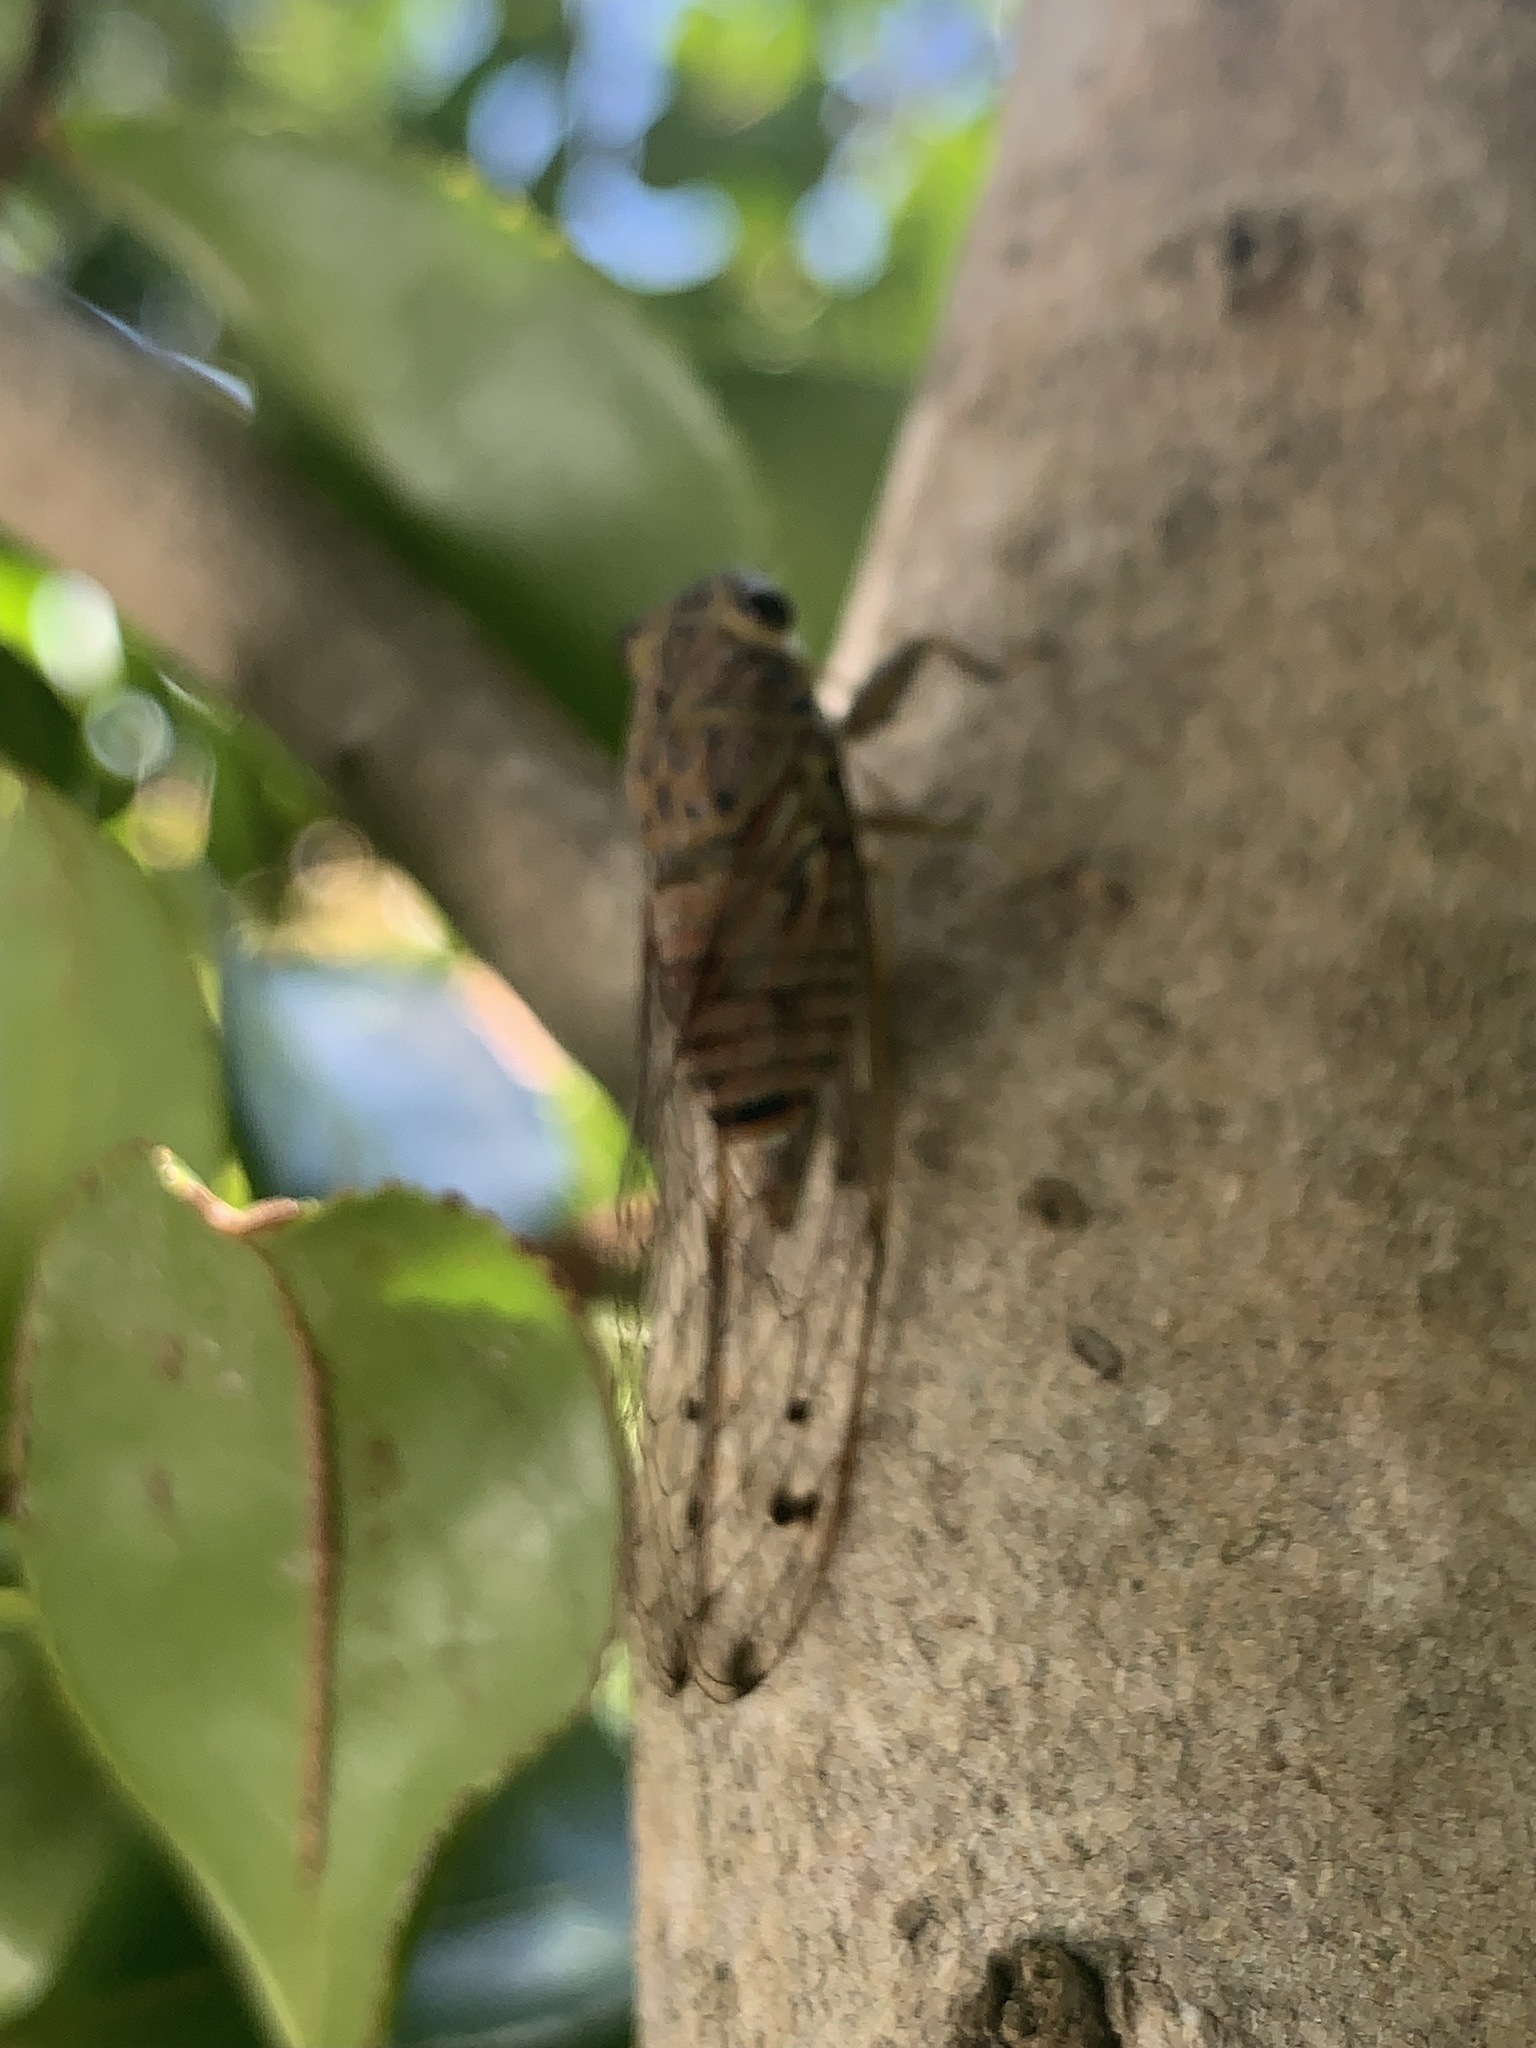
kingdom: Animalia
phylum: Arthropoda
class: Insecta
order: Hemiptera
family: Cicadidae
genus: Tamasa
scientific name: Tamasa tristigma
